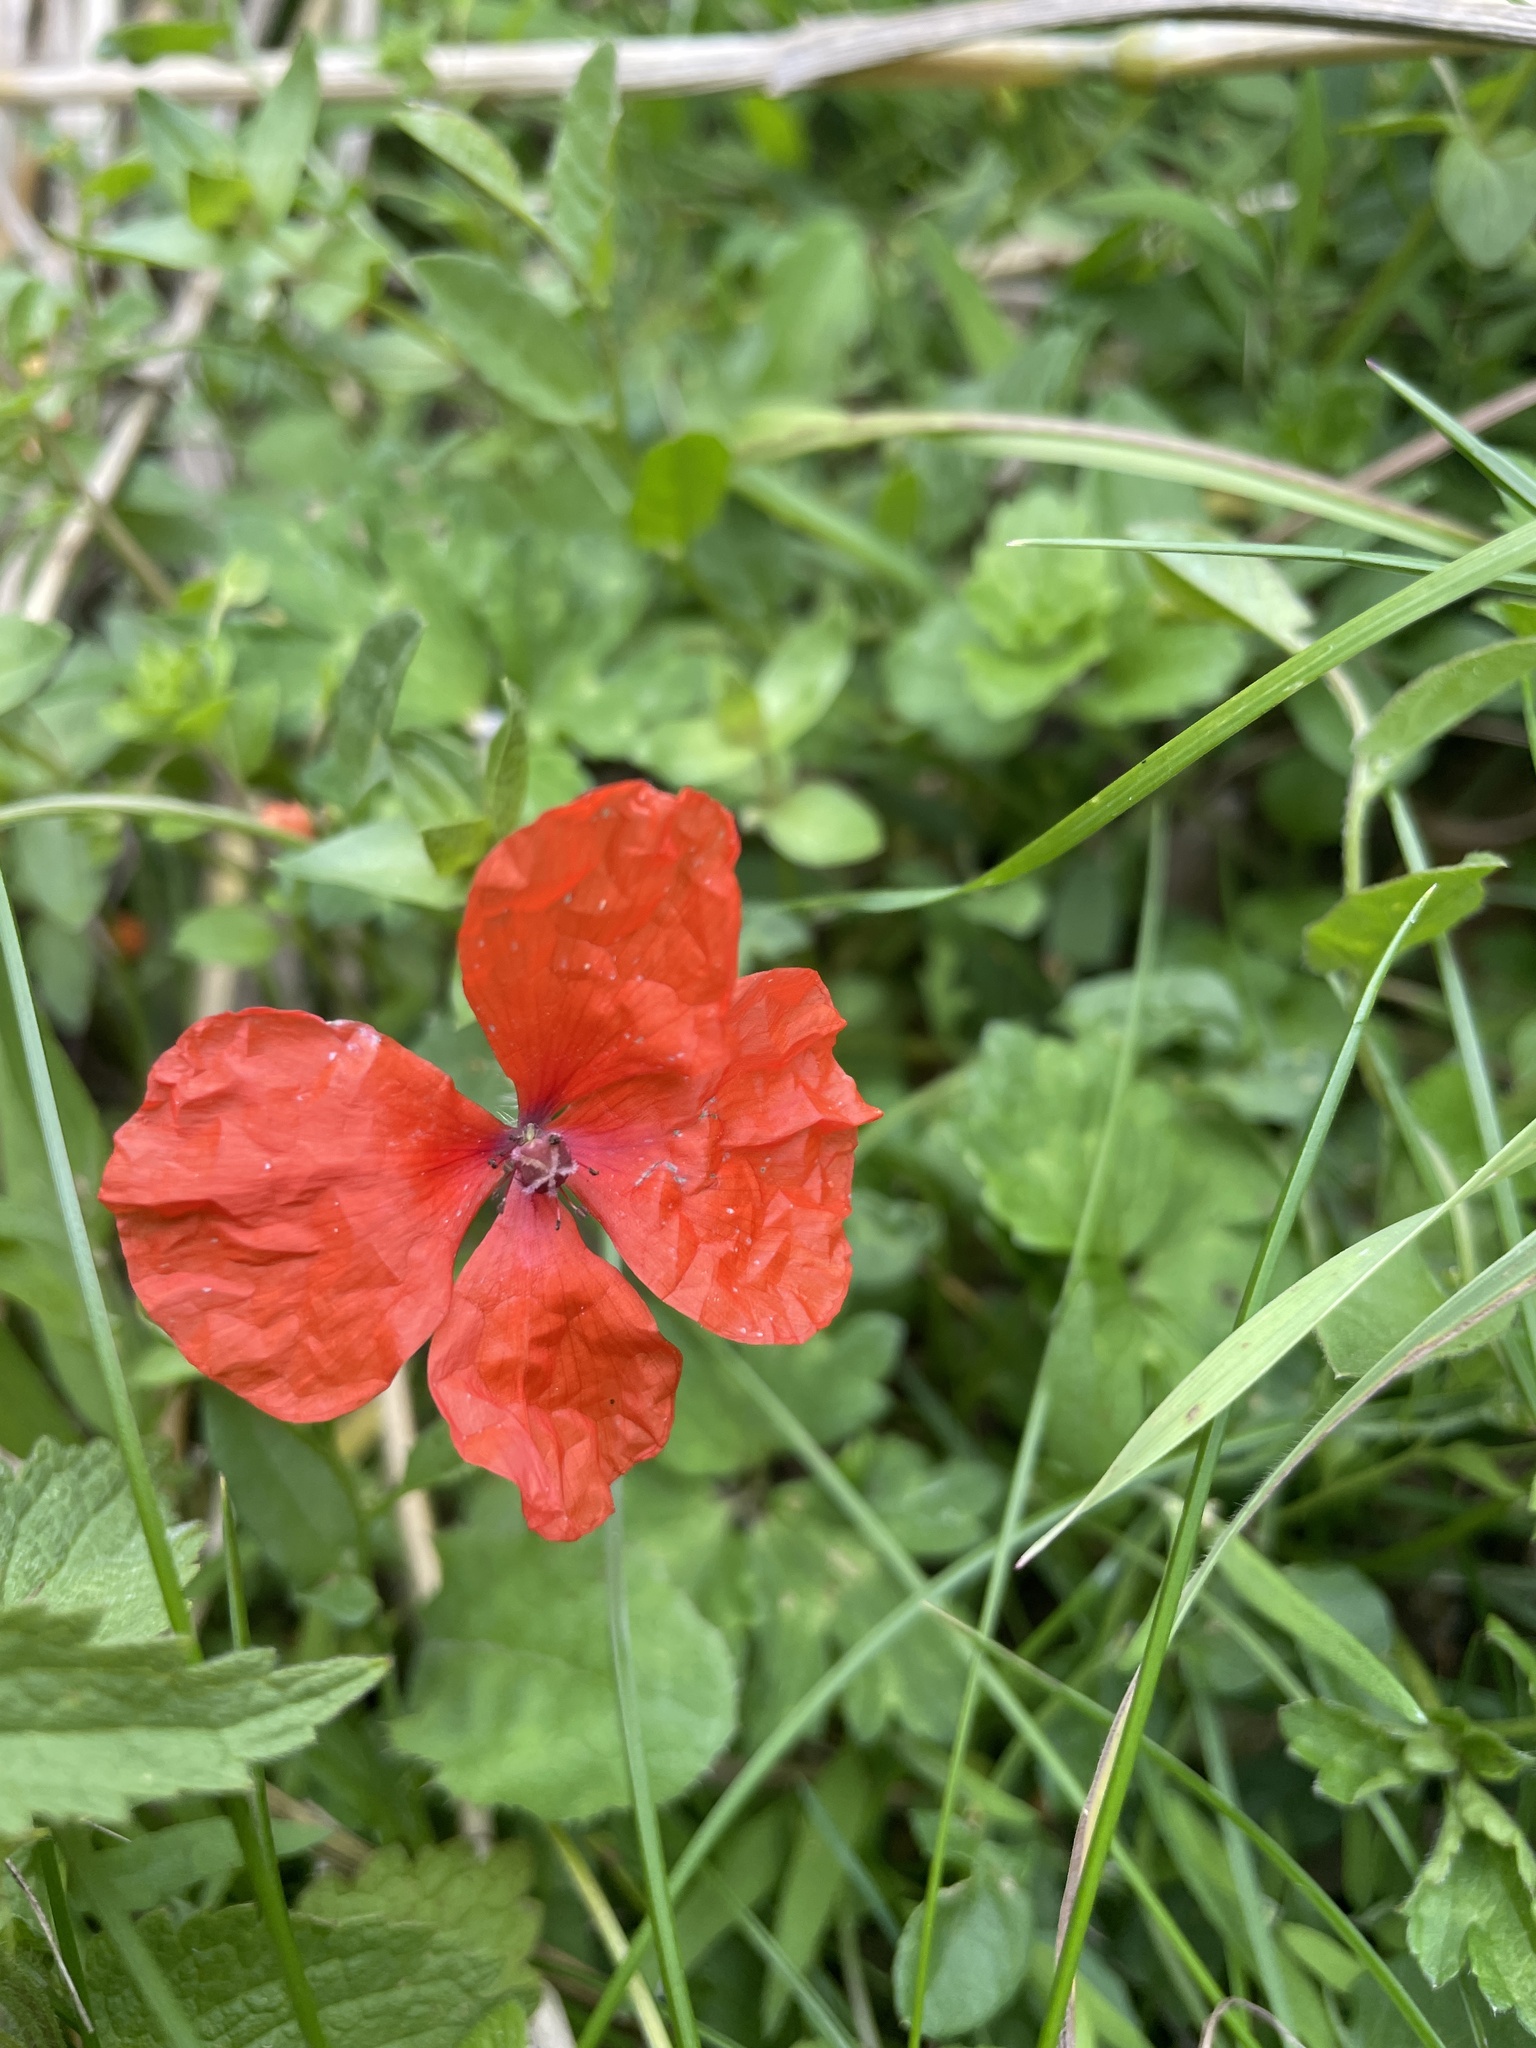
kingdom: Plantae
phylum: Tracheophyta
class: Magnoliopsida
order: Ranunculales
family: Papaveraceae
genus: Papaver
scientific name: Papaver rhoeas
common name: Corn poppy
